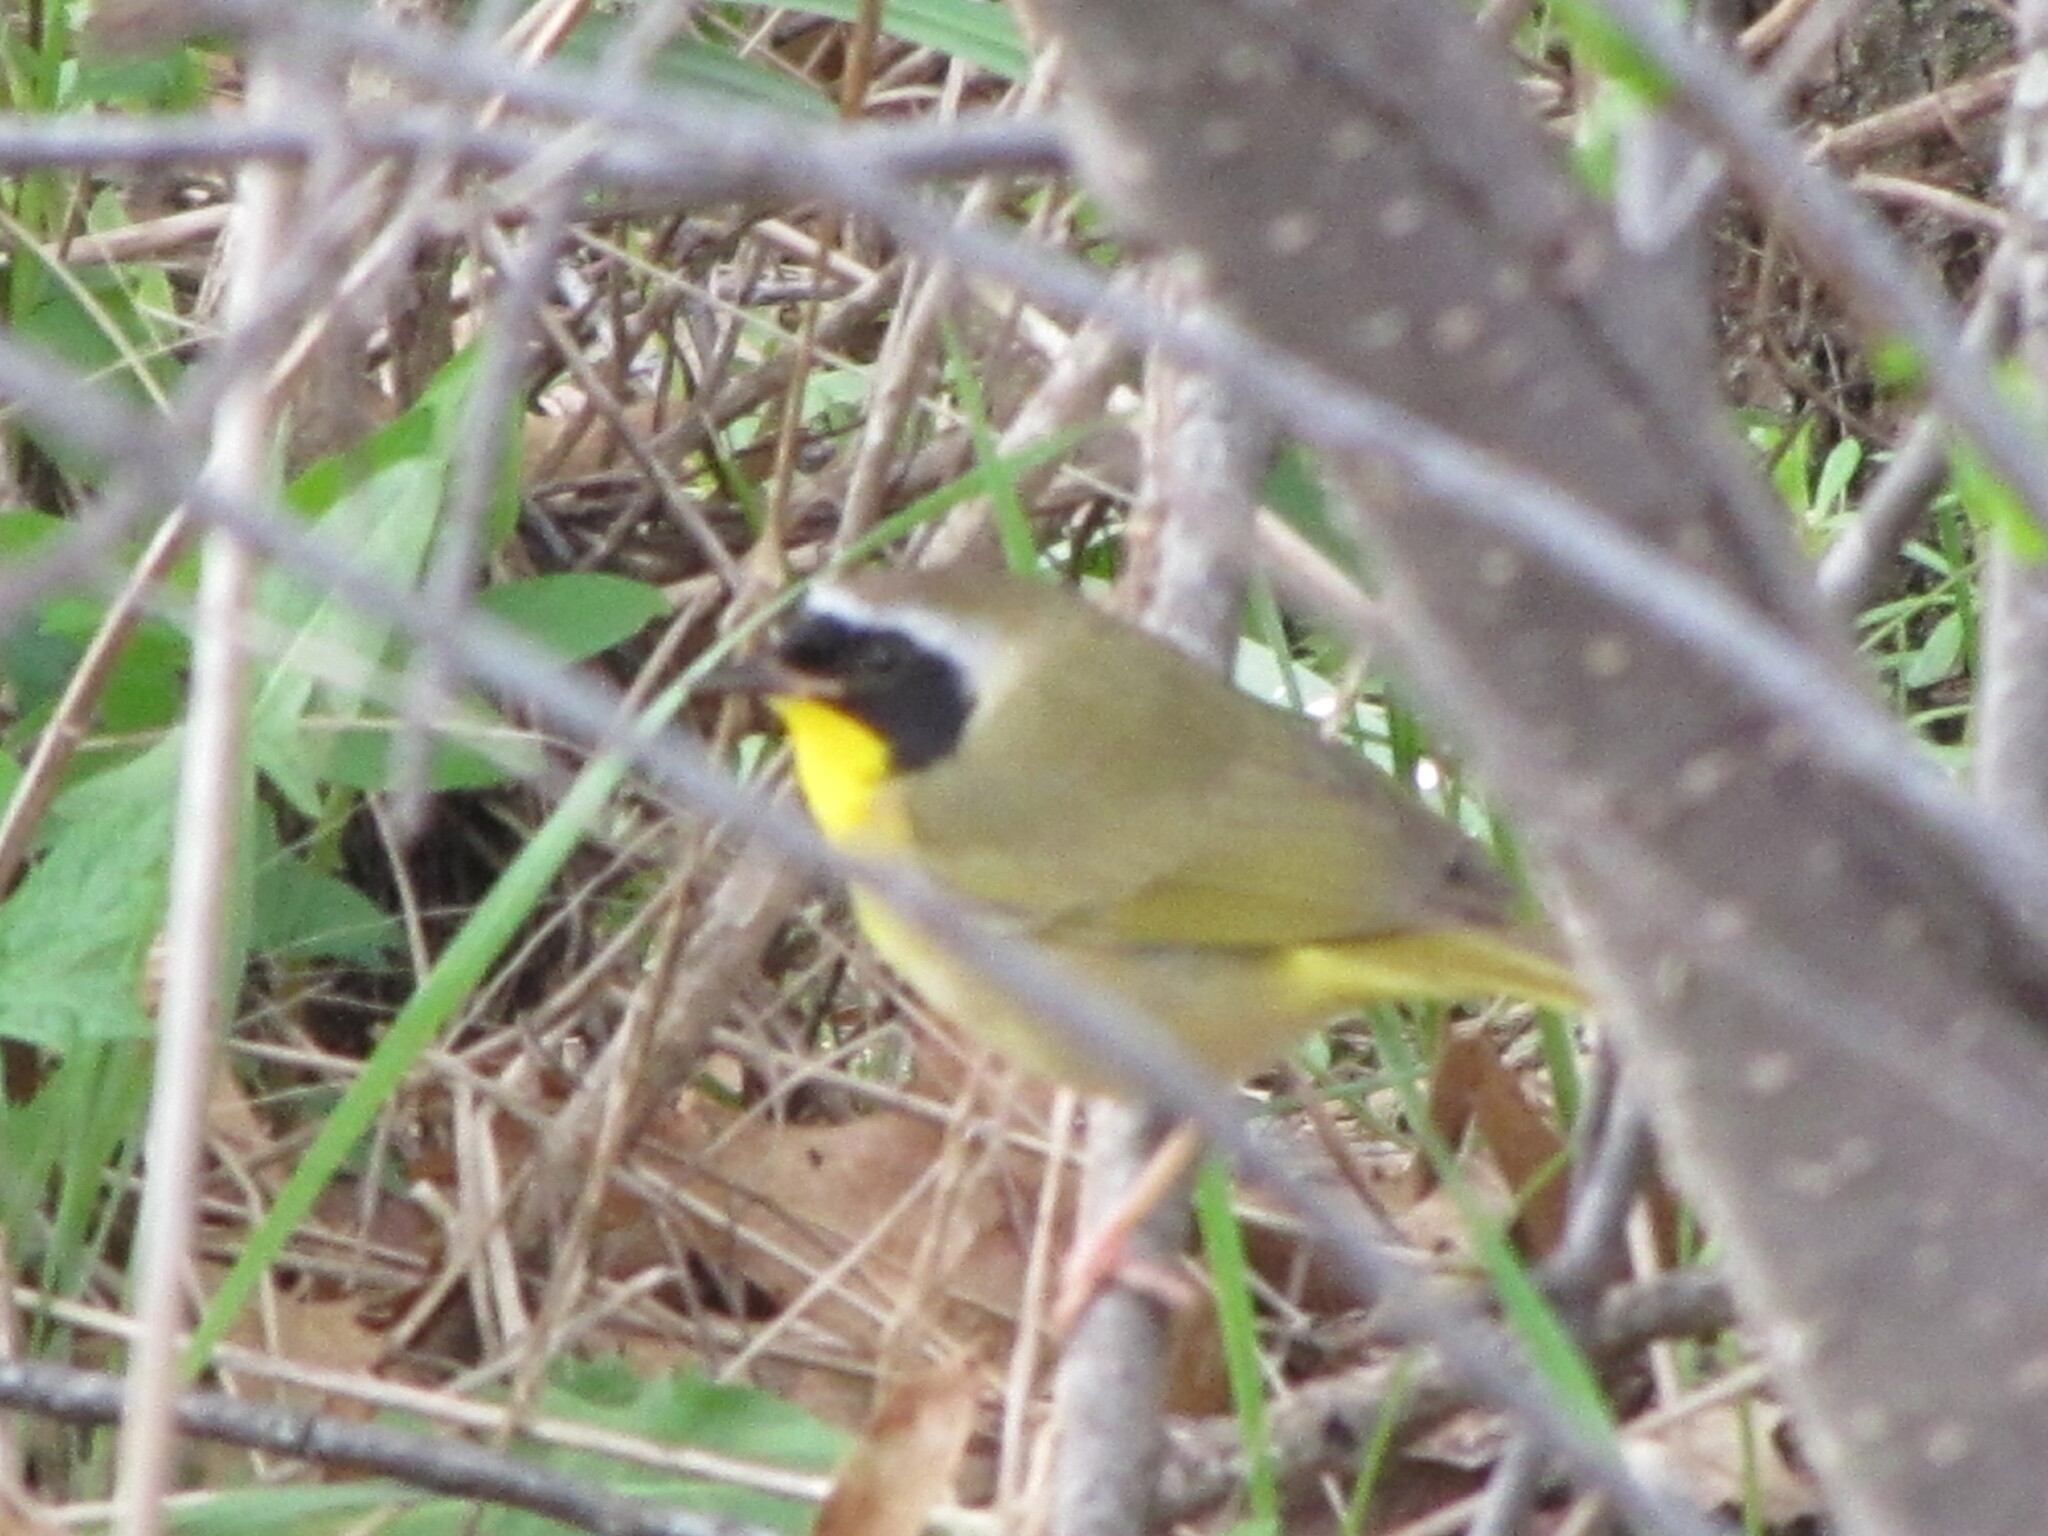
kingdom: Animalia
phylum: Chordata
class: Aves
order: Passeriformes
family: Parulidae
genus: Geothlypis
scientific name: Geothlypis trichas
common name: Common yellowthroat
